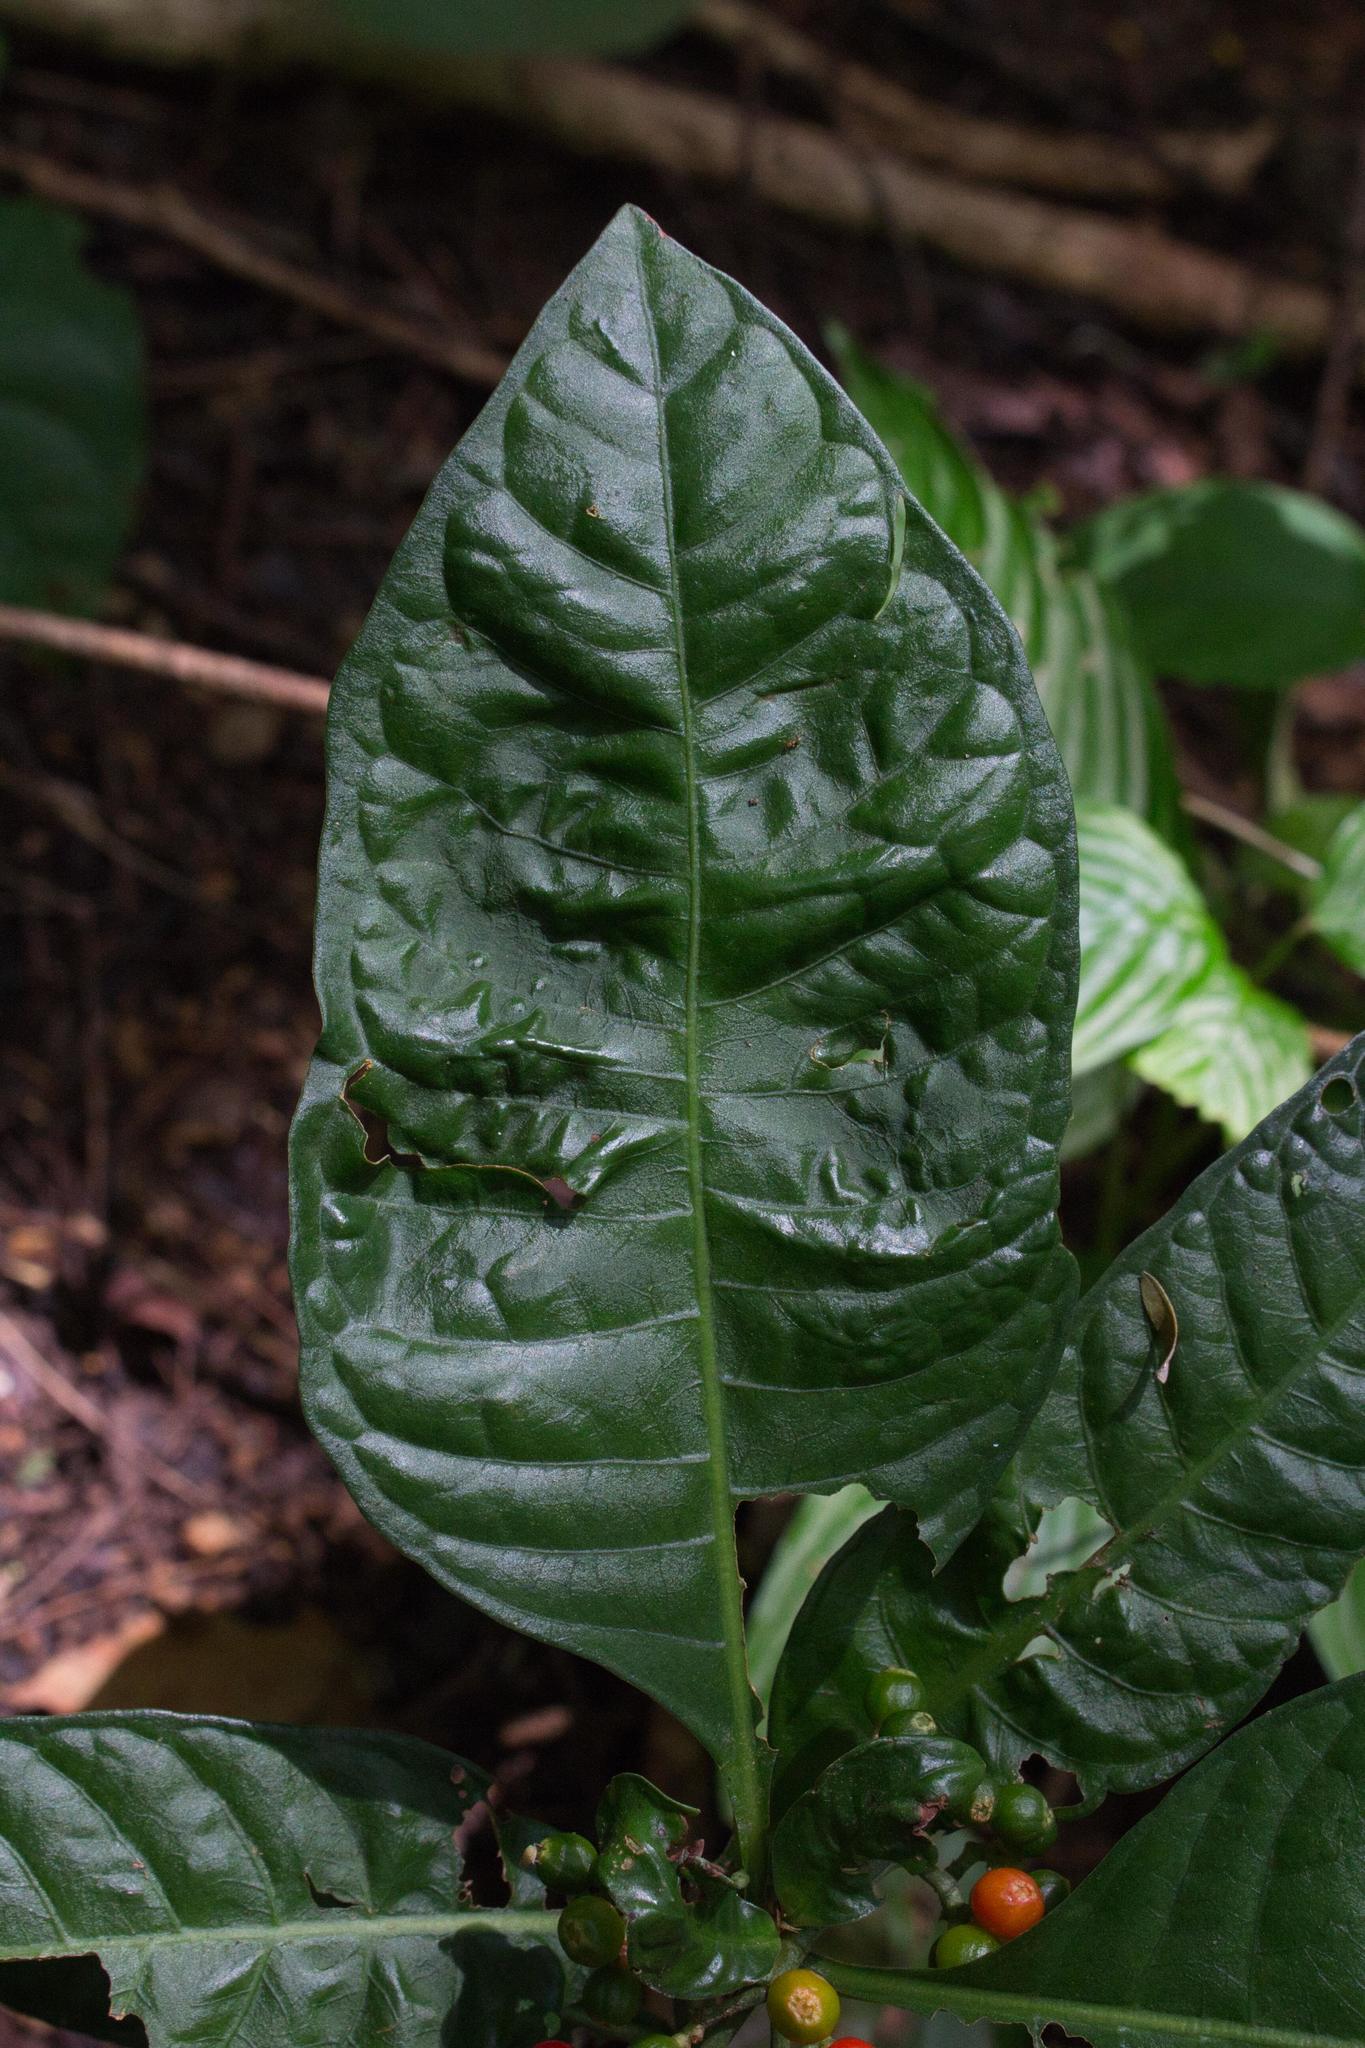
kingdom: Plantae
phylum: Tracheophyta
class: Magnoliopsida
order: Gentianales
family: Rubiaceae
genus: Psychotria
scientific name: Psychotria tenuifolia
